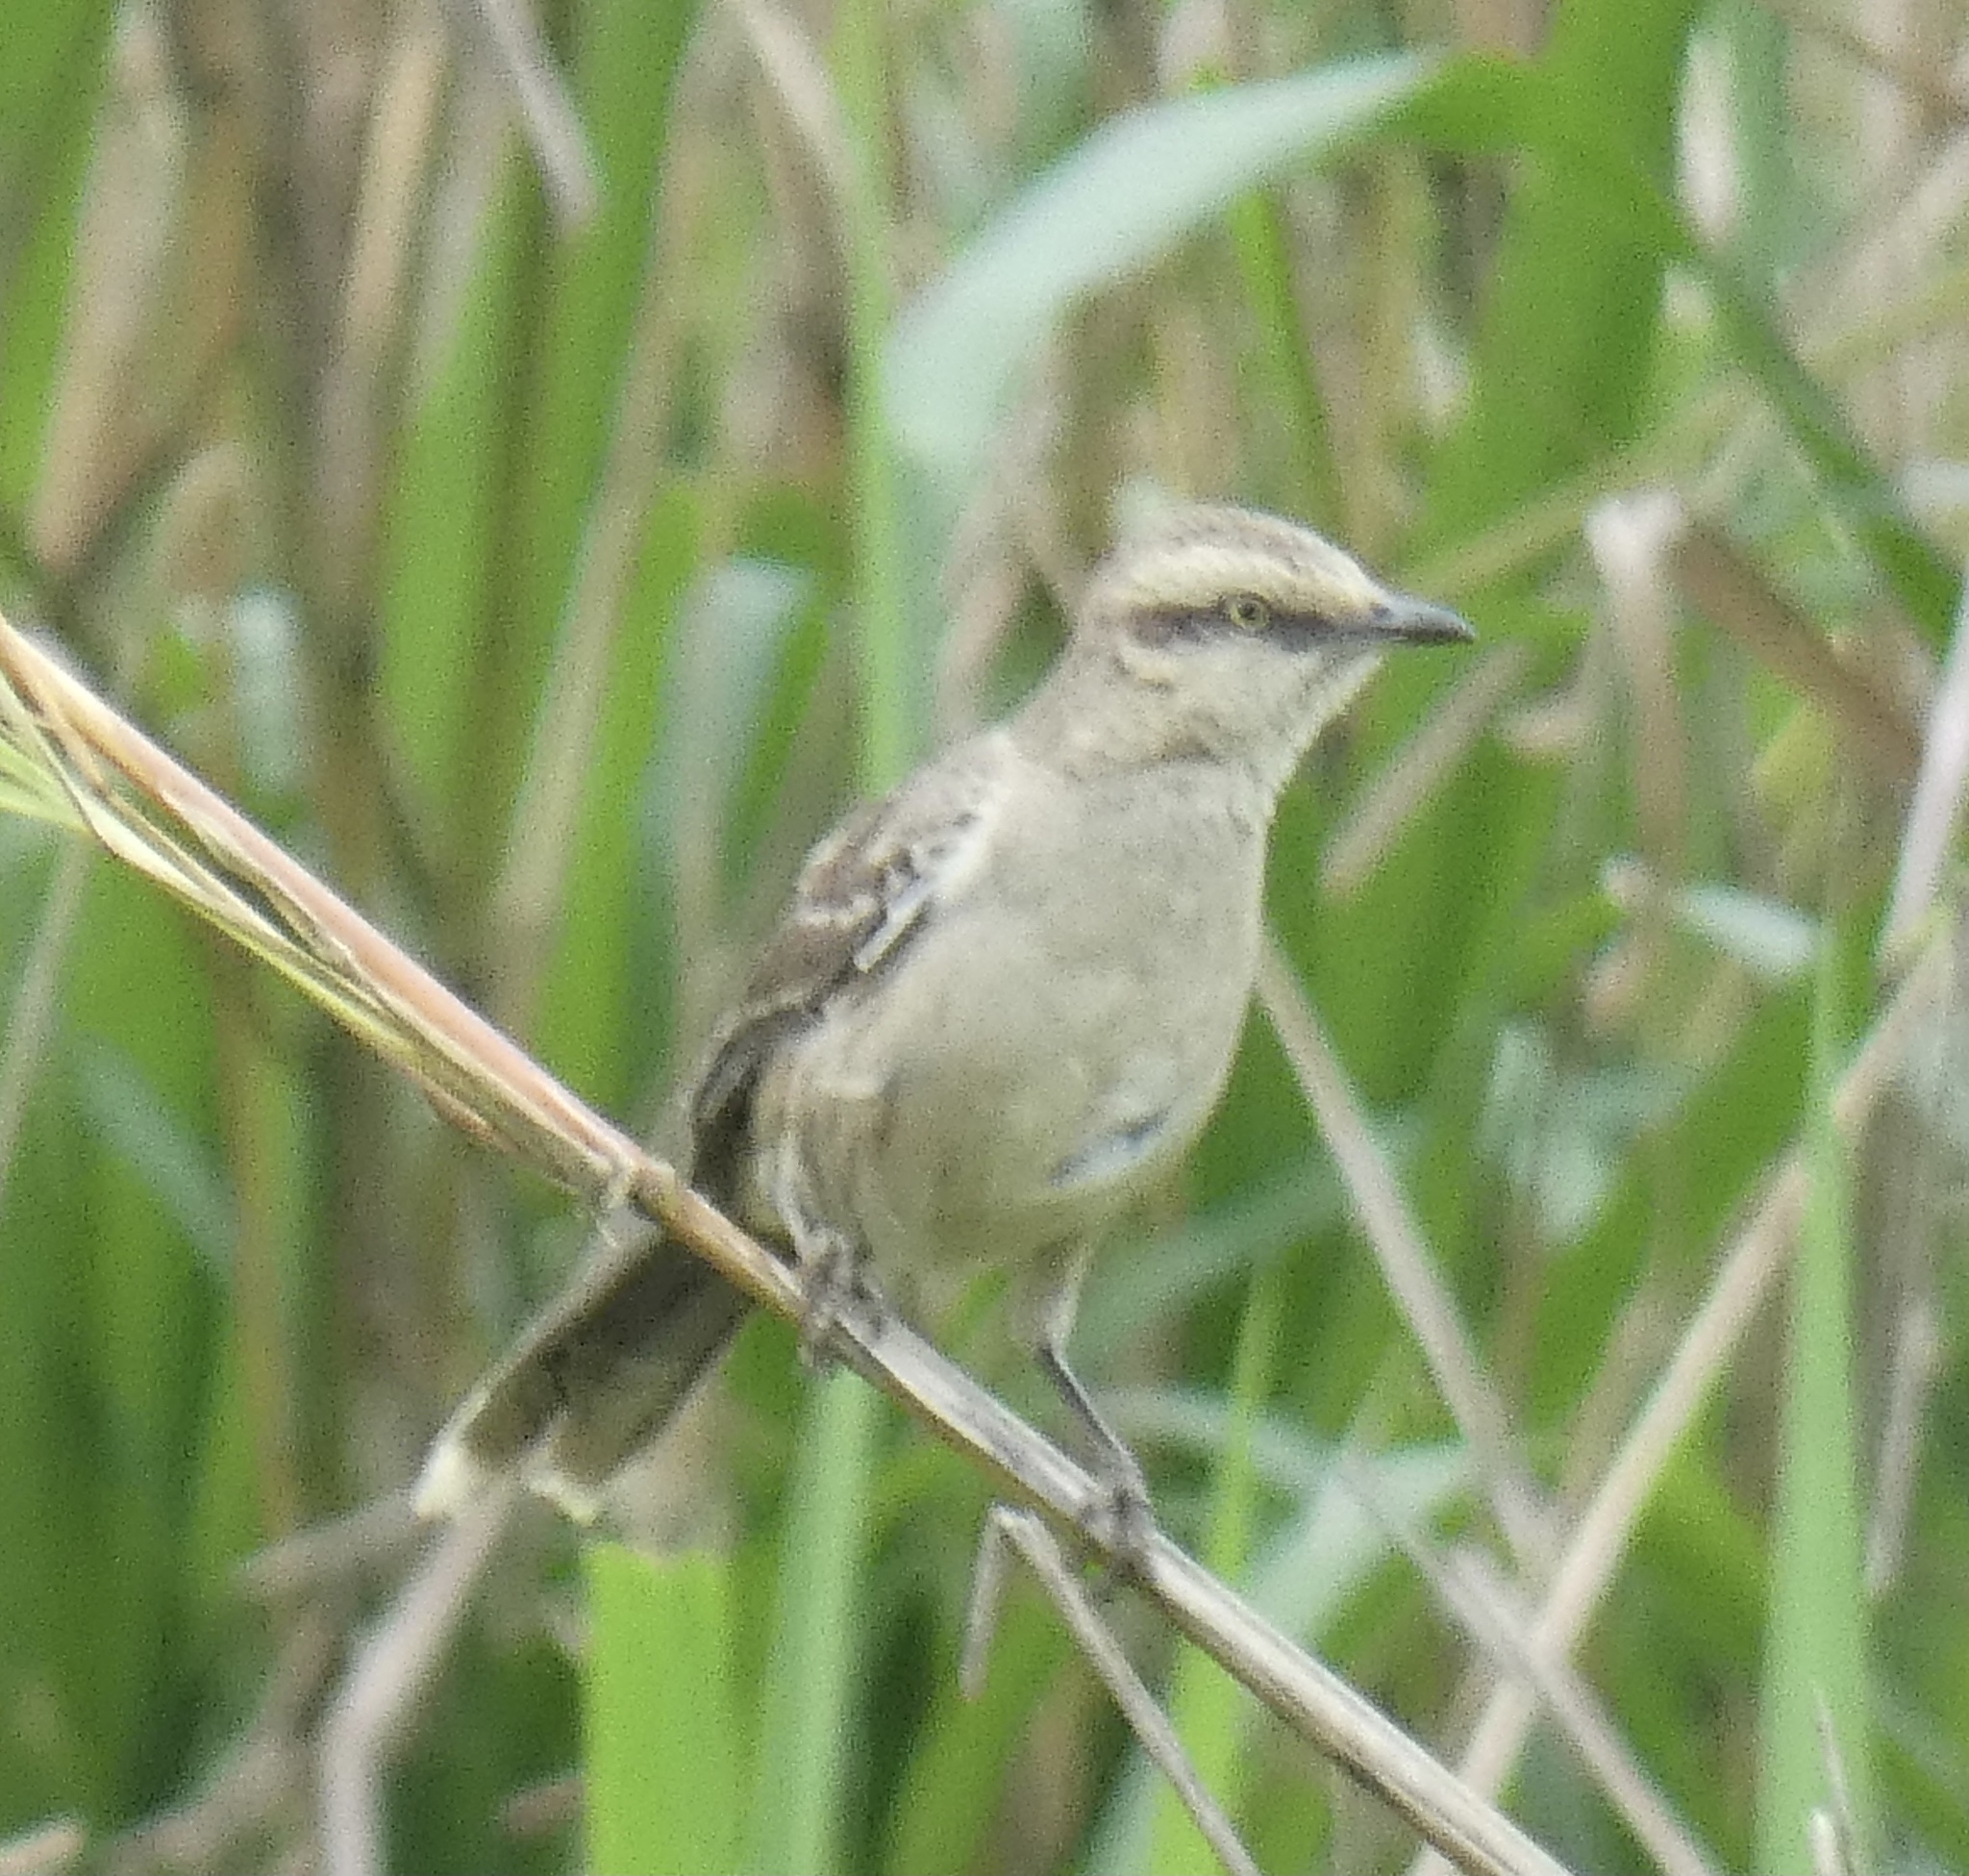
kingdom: Animalia
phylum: Chordata
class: Aves
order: Passeriformes
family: Mimidae
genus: Mimus
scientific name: Mimus saturninus
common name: Chalk-browed mockingbird
